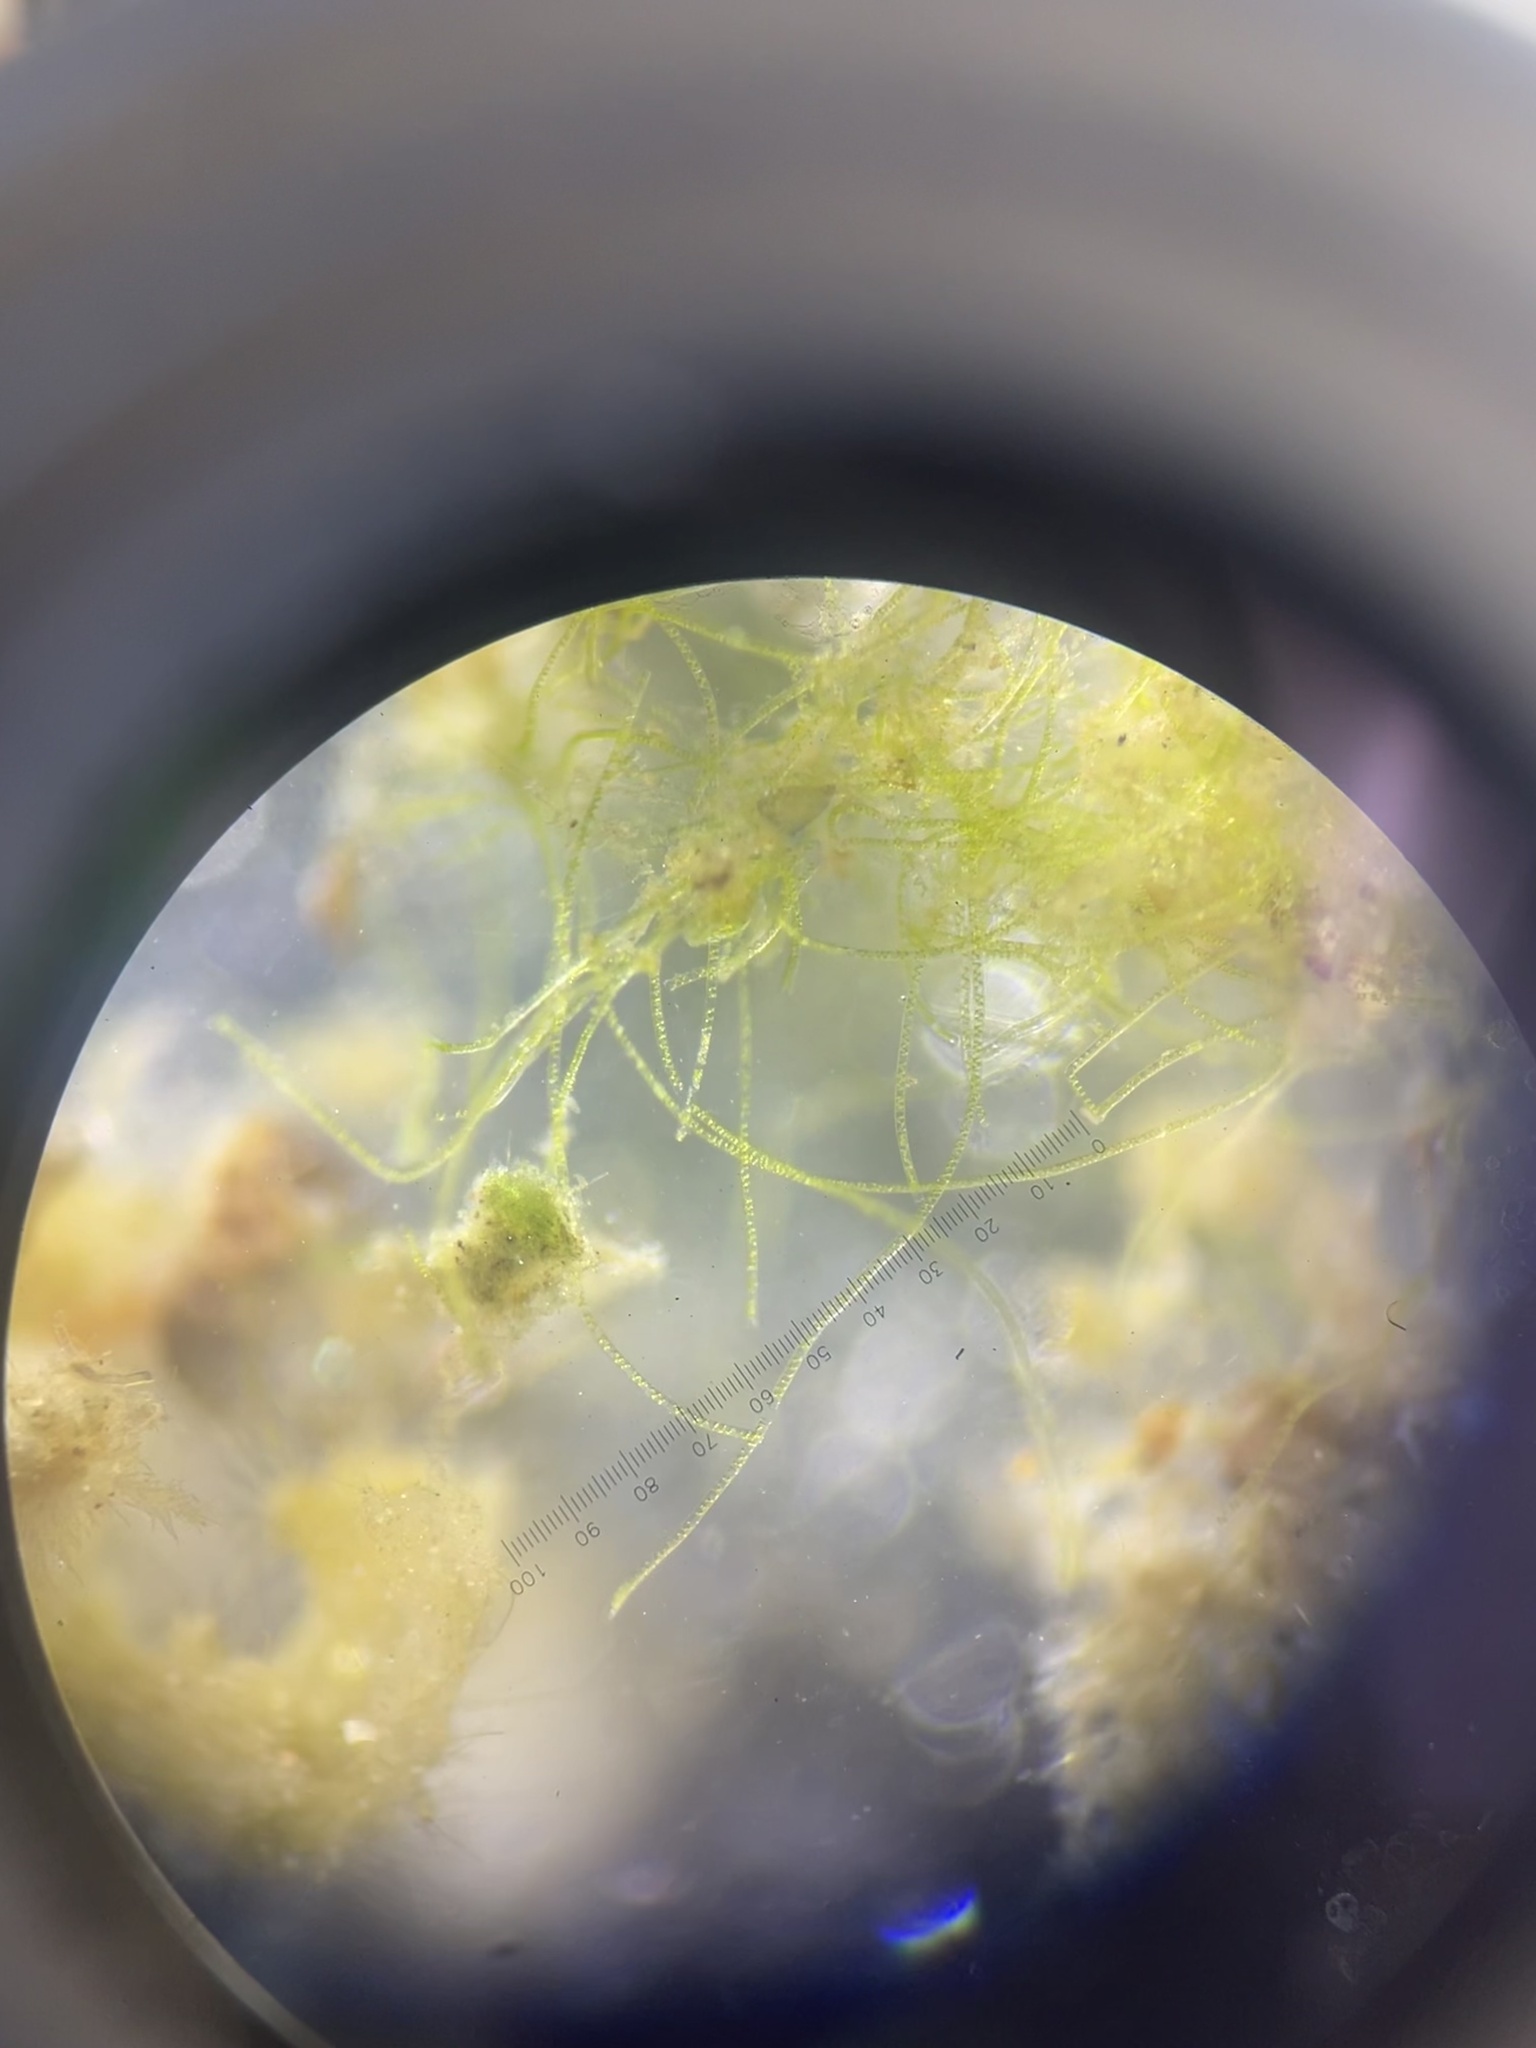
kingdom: Plantae
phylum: Charophyta
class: Zygnematophyceae
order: Zygnematales
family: Zygnemataceae
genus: Spirogyra
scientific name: Spirogyra
